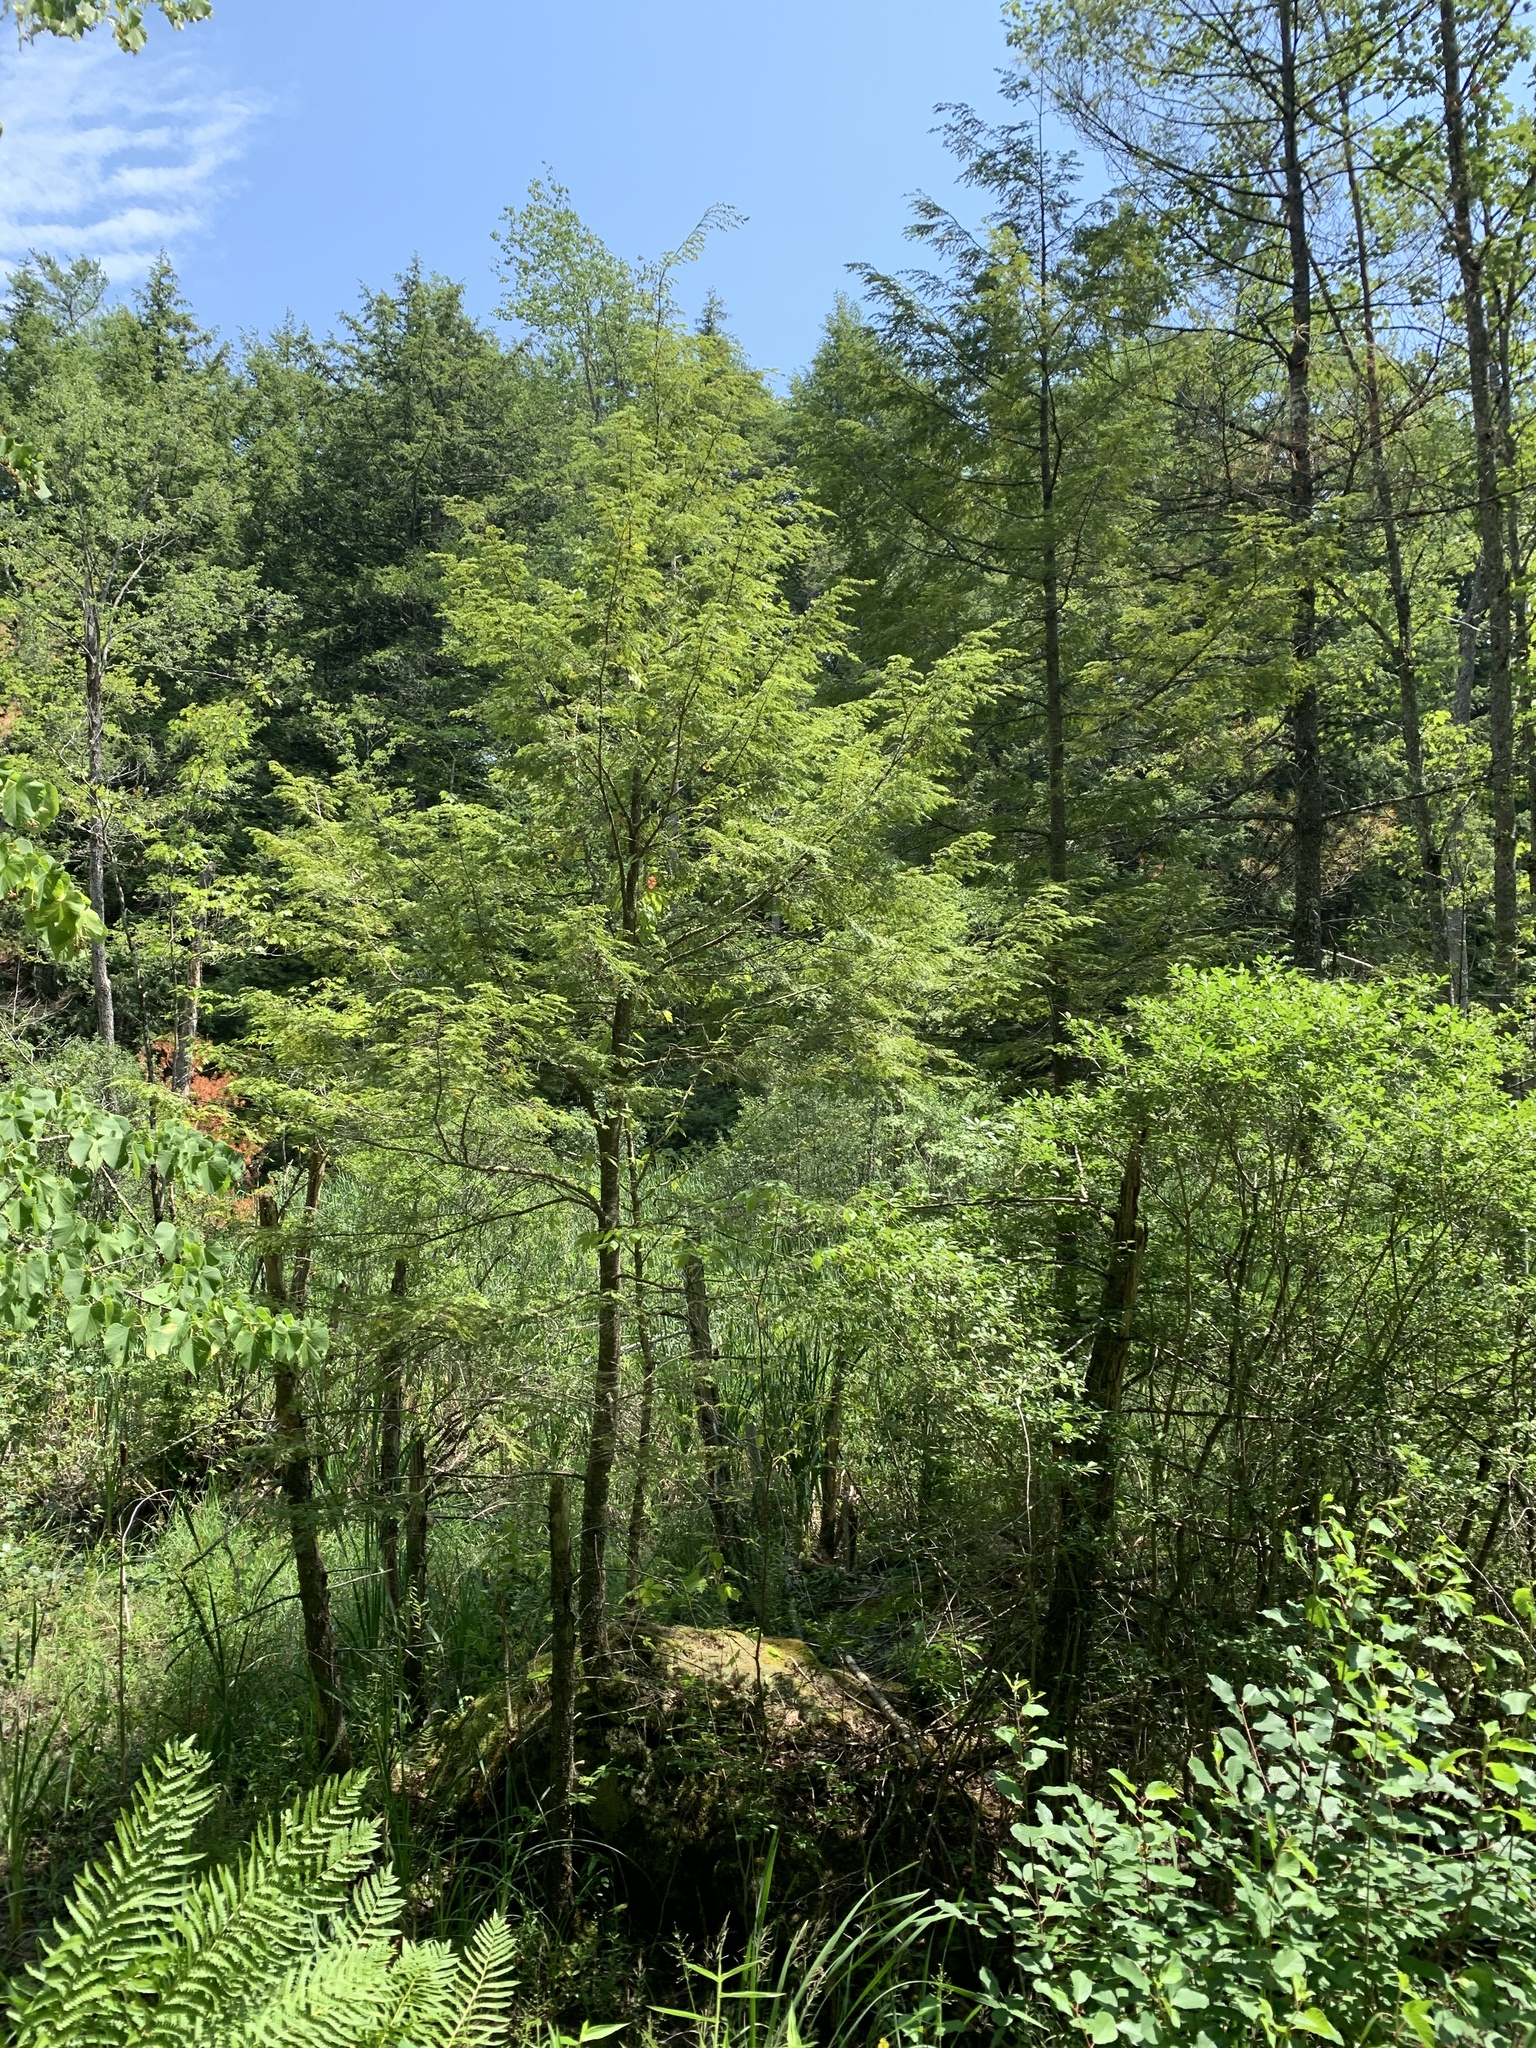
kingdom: Plantae
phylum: Tracheophyta
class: Pinopsida
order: Pinales
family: Pinaceae
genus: Tsuga
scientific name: Tsuga canadensis
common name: Eastern hemlock
